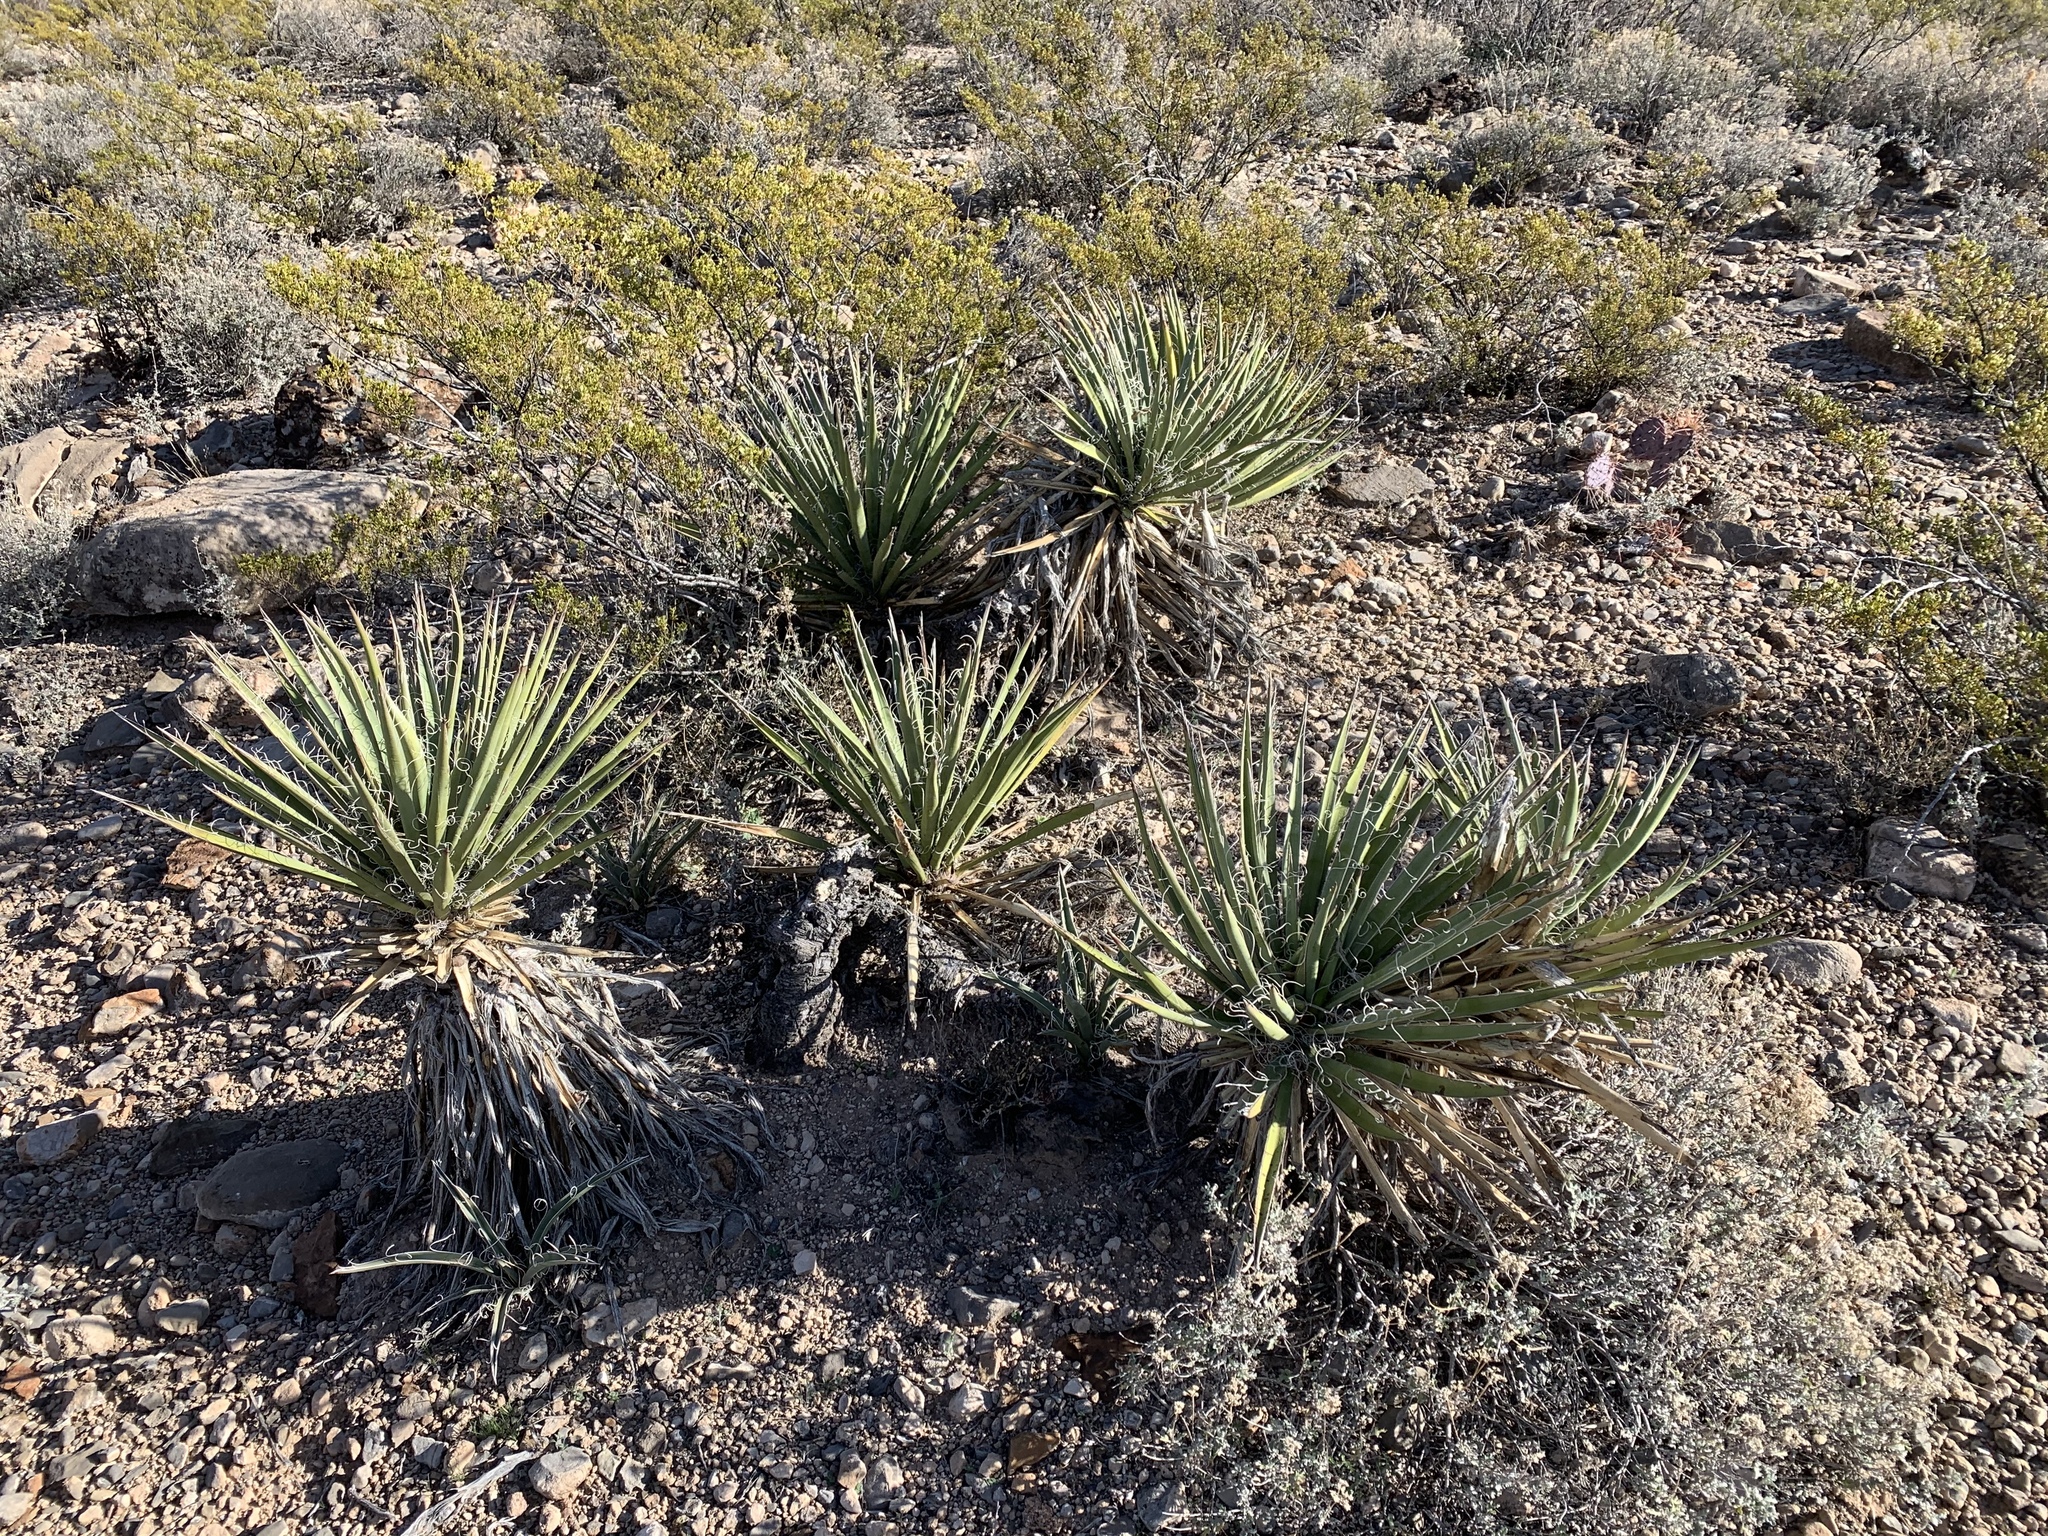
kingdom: Plantae
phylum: Tracheophyta
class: Liliopsida
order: Asparagales
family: Asparagaceae
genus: Yucca
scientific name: Yucca baccata
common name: Banana yucca
